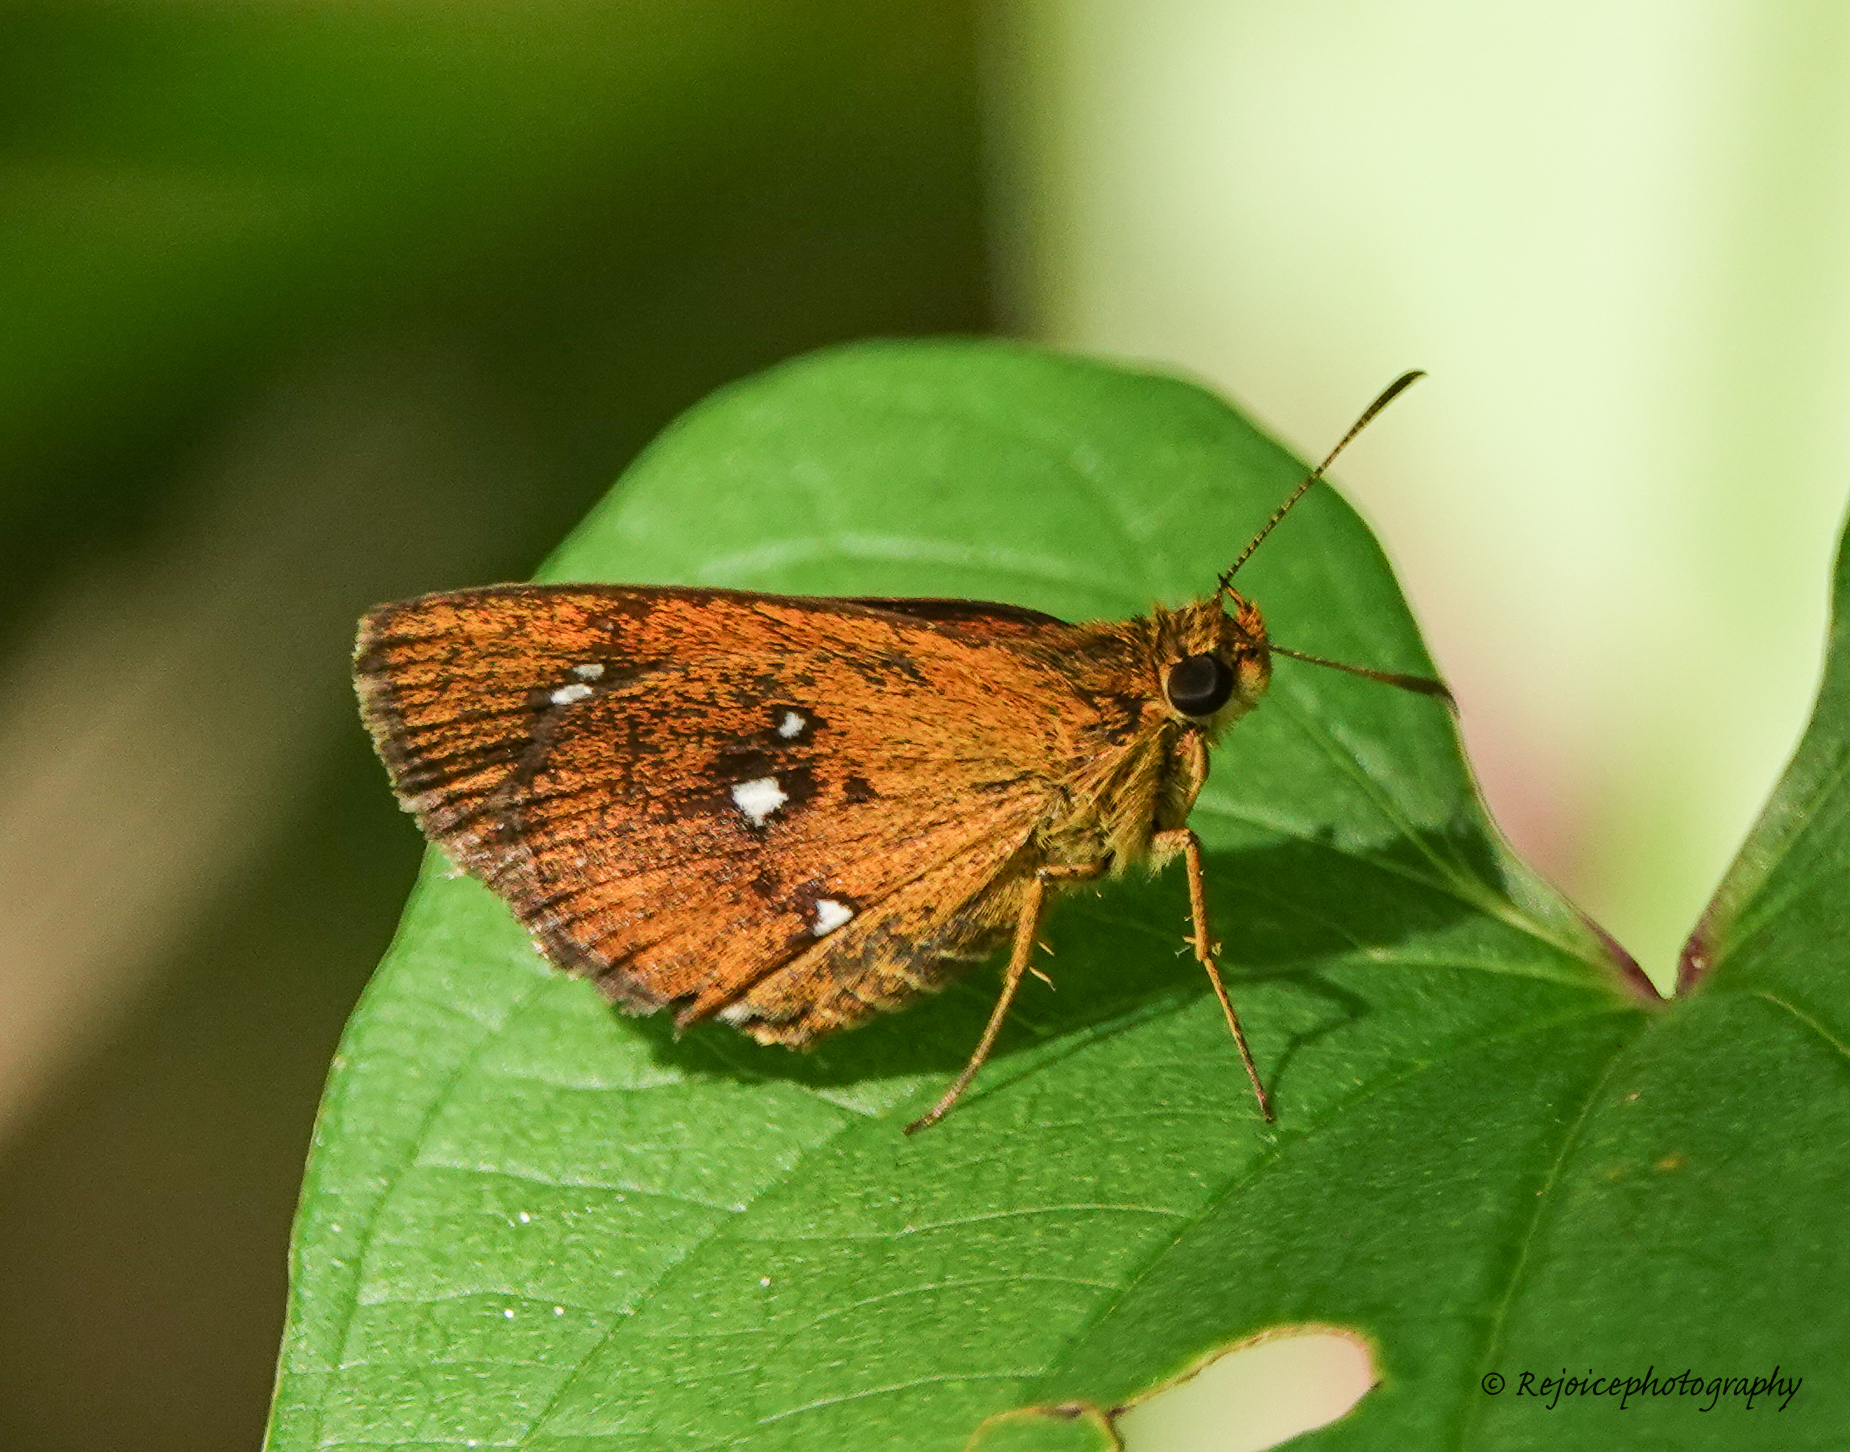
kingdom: Animalia
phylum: Arthropoda
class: Insecta
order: Lepidoptera
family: Hesperiidae
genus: Iambrix
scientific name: Iambrix salsala
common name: Chestnut bob
